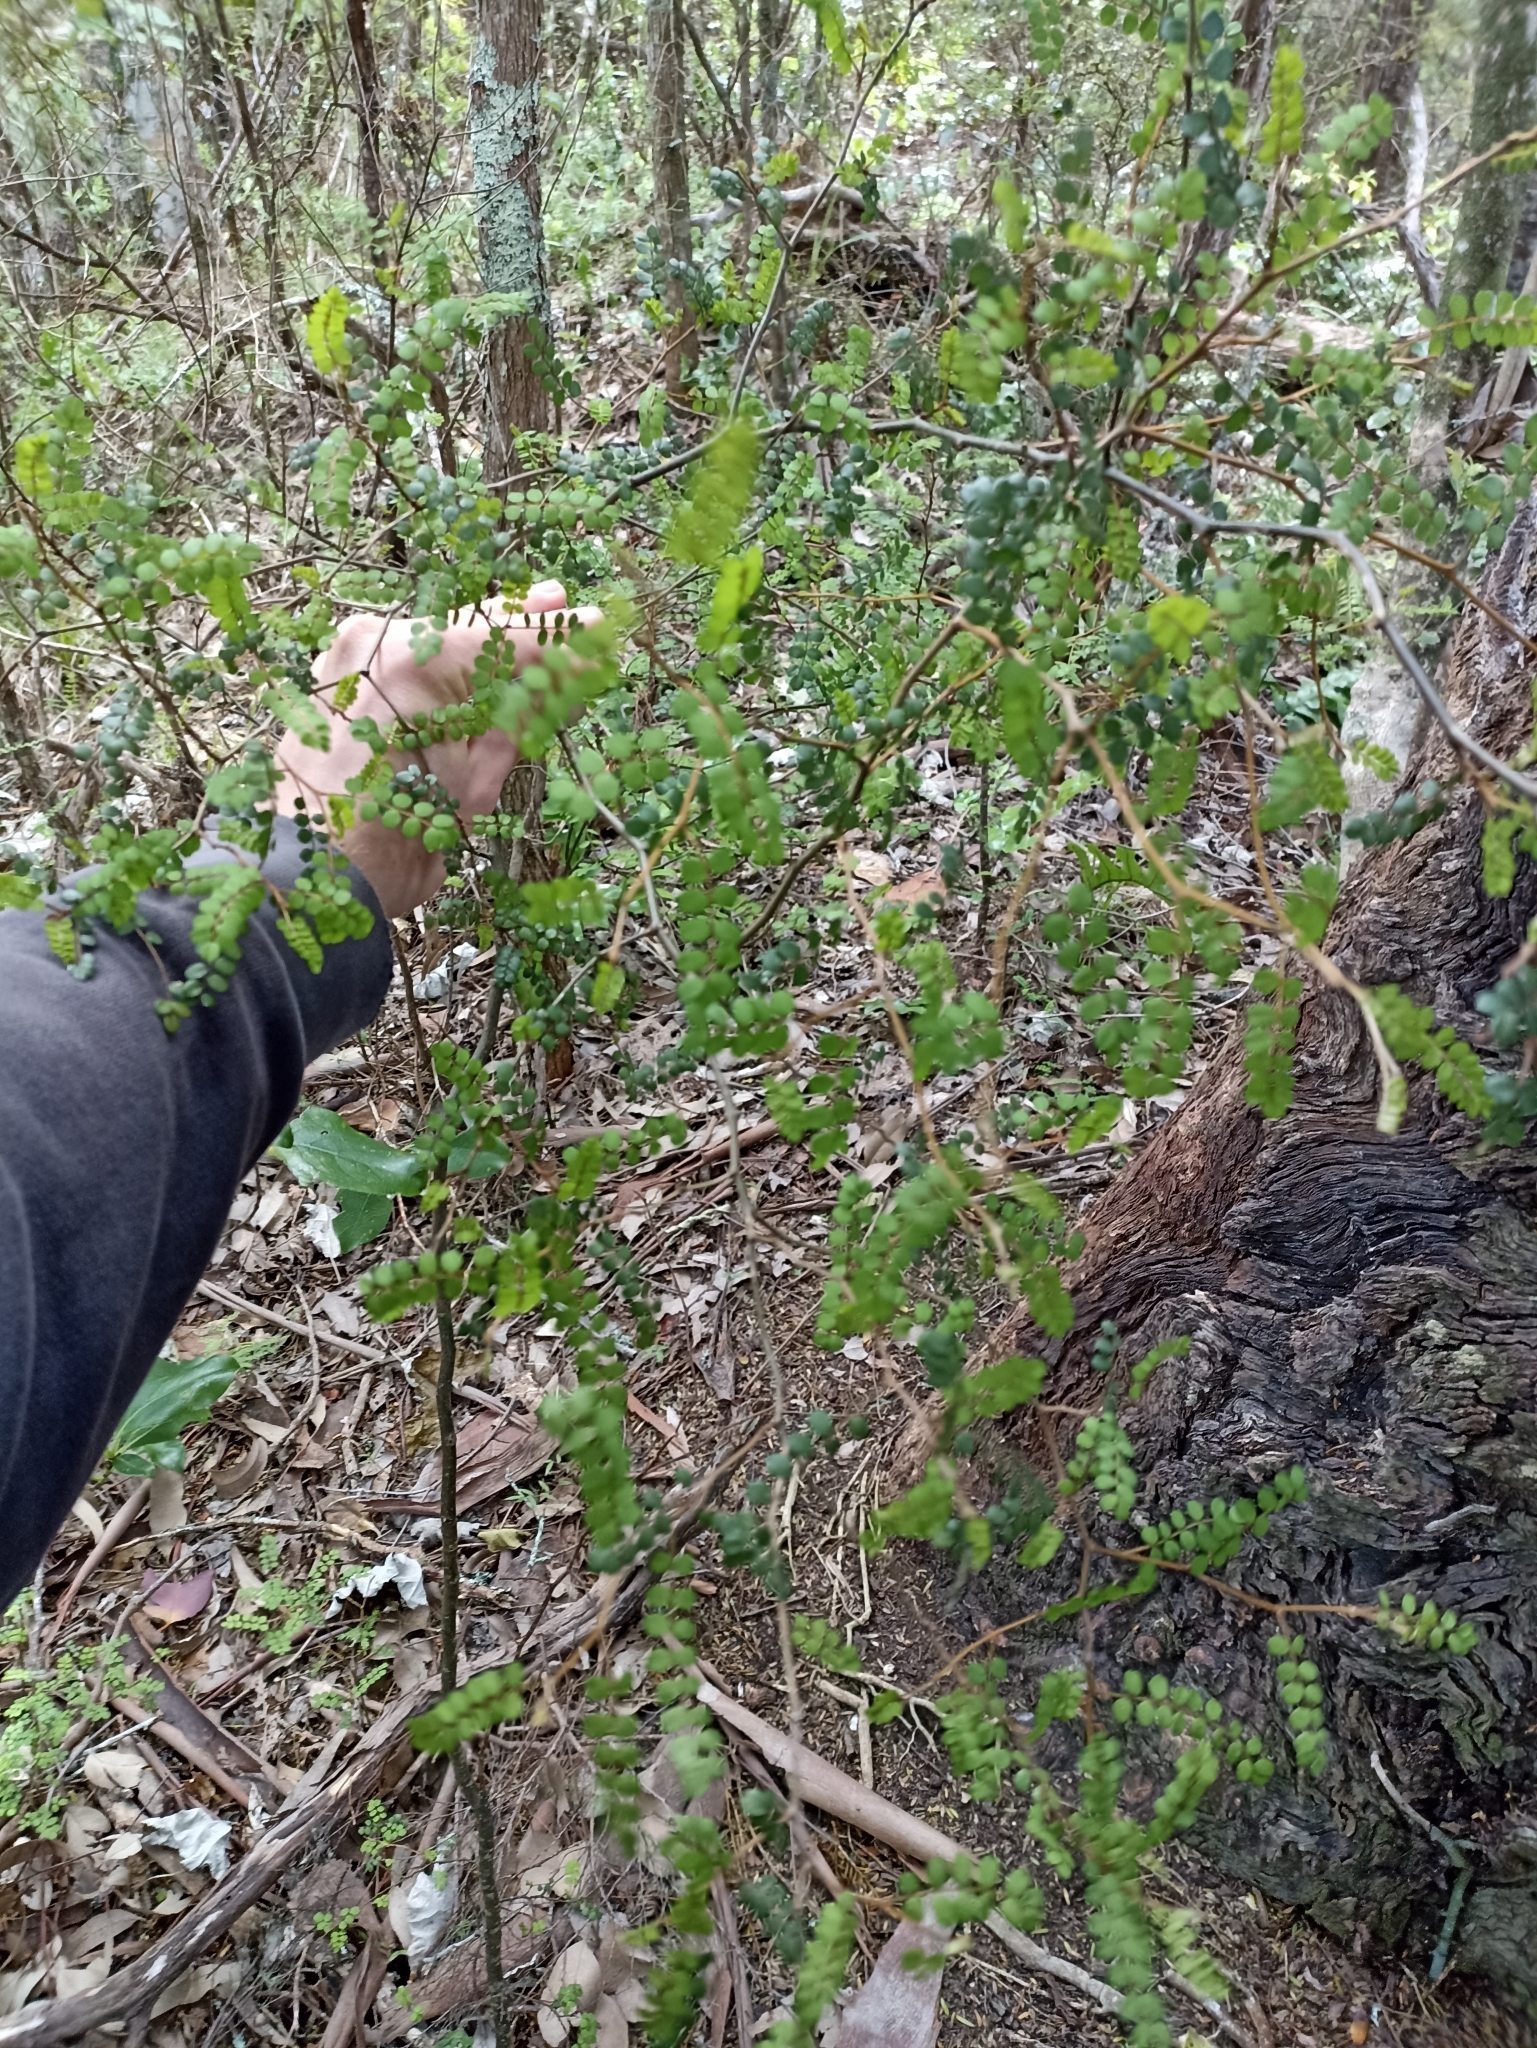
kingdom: Plantae
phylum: Tracheophyta
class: Magnoliopsida
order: Fabales
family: Fabaceae
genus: Sophora
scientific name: Sophora chathamica
